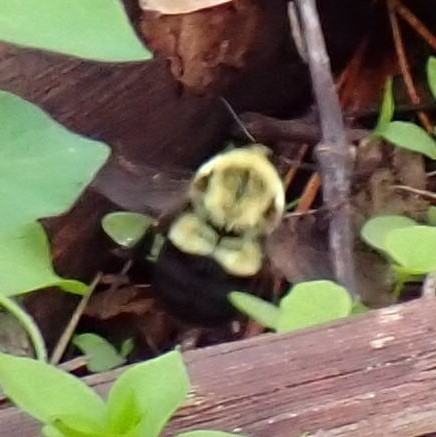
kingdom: Animalia
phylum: Arthropoda
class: Insecta
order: Hymenoptera
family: Apidae
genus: Bombus
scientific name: Bombus impatiens
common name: Common eastern bumble bee
